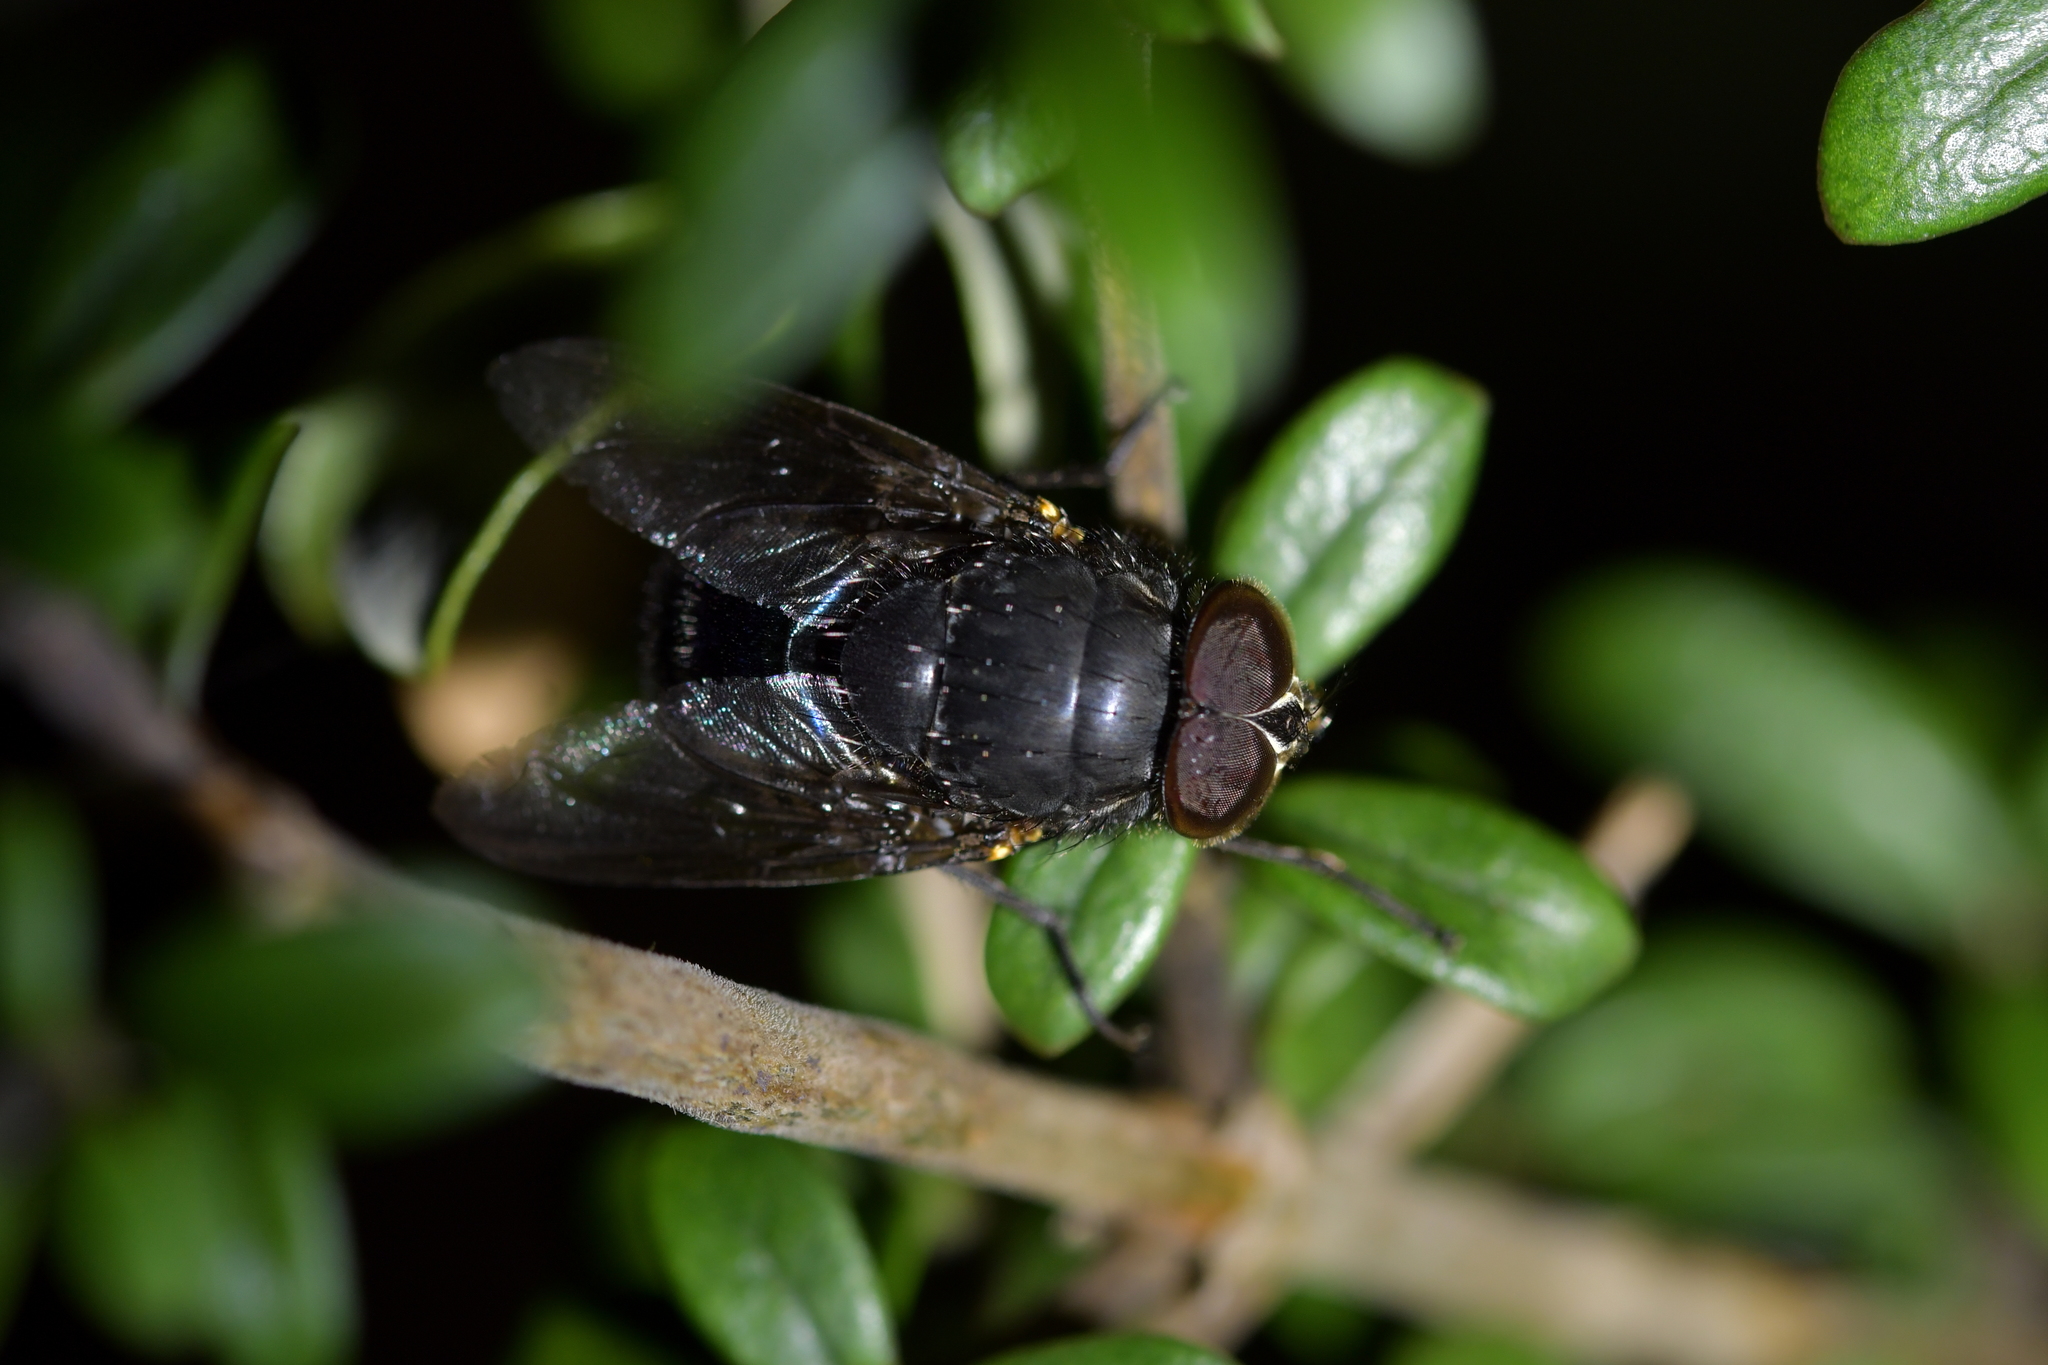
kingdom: Animalia
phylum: Arthropoda
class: Insecta
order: Diptera
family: Calliphoridae
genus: Calliphora
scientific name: Calliphora quadrimaculata
